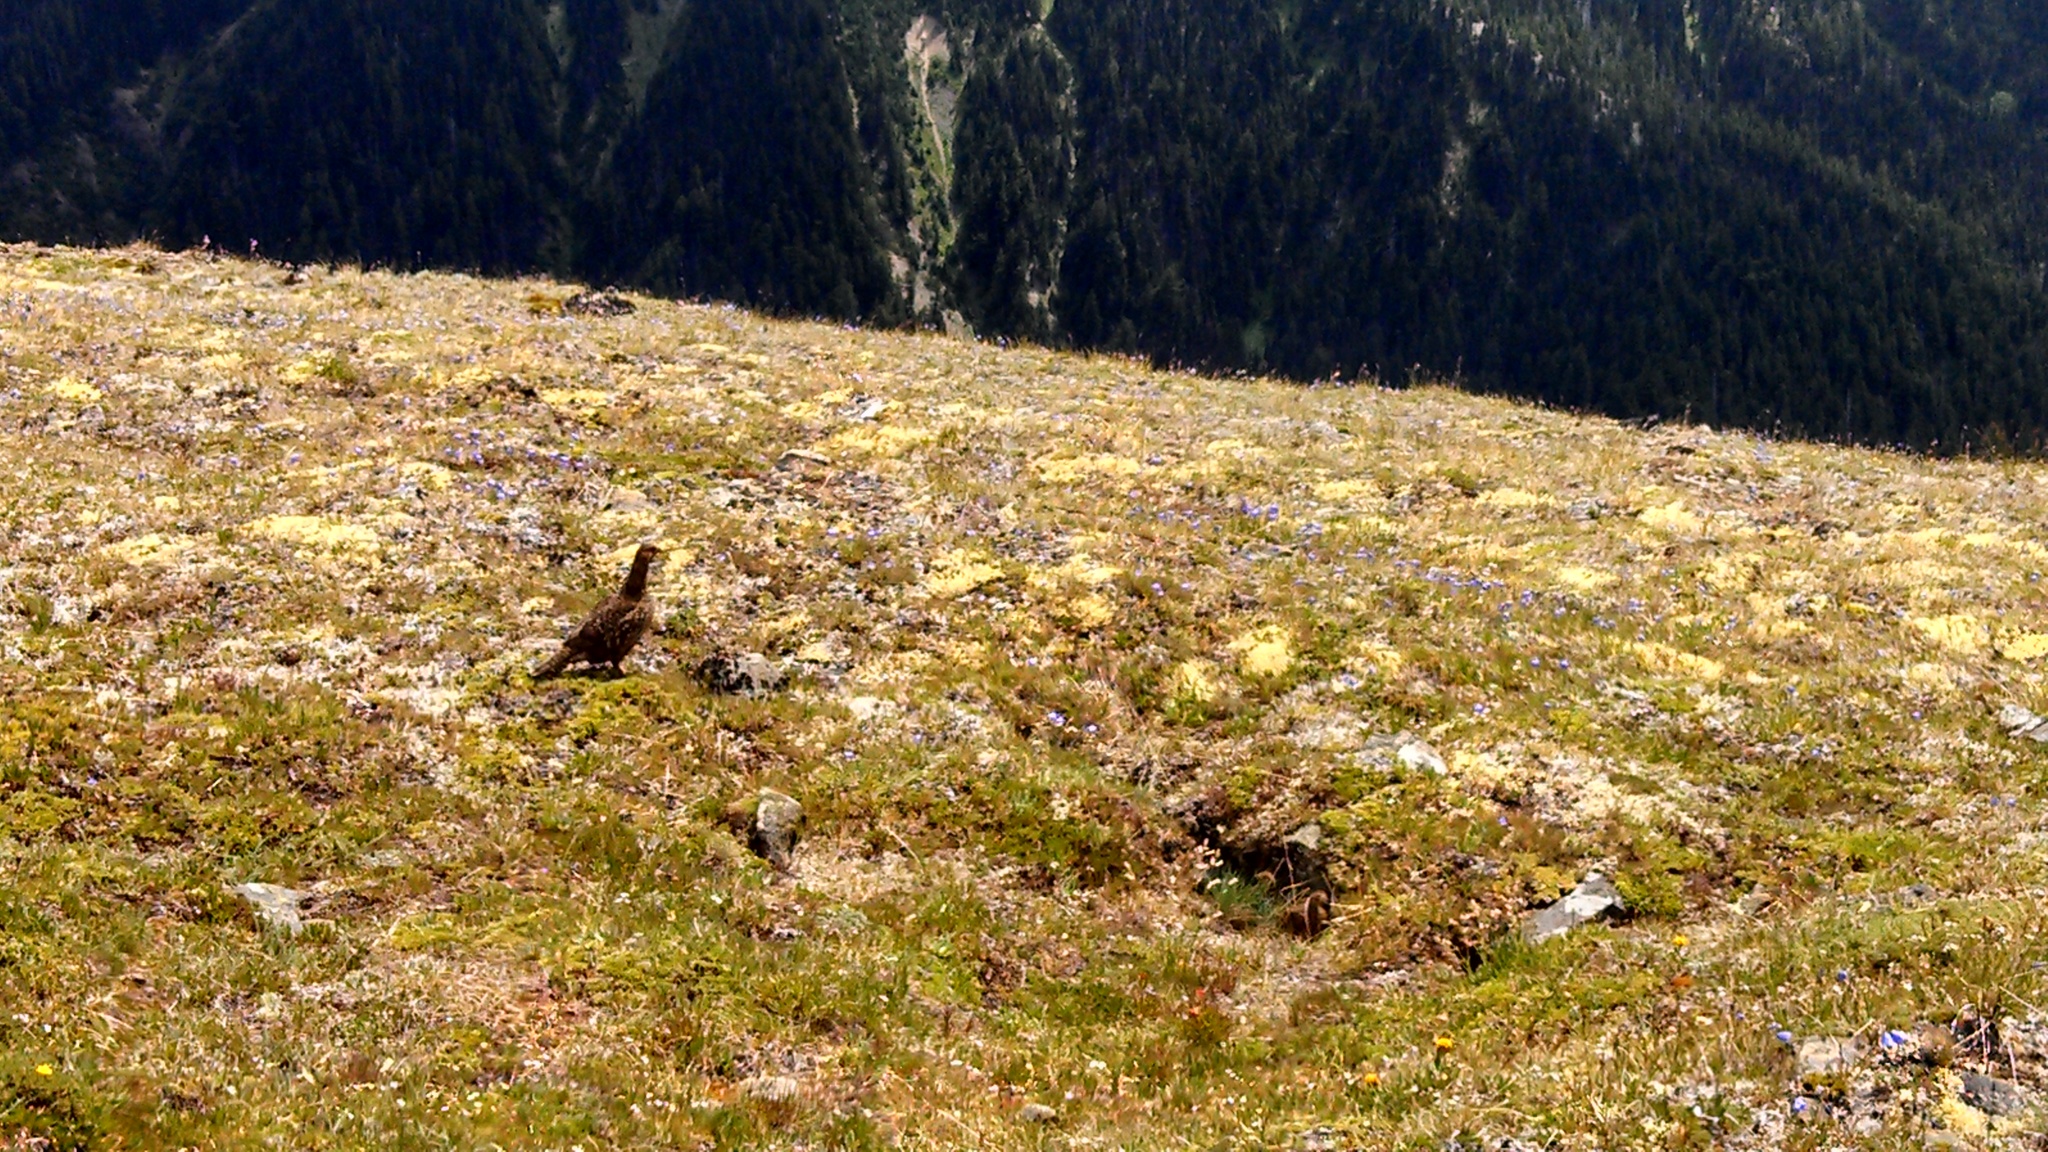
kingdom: Animalia
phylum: Chordata
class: Aves
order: Galliformes
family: Phasianidae
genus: Dendragapus
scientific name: Dendragapus fuliginosus
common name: Sooty grouse
